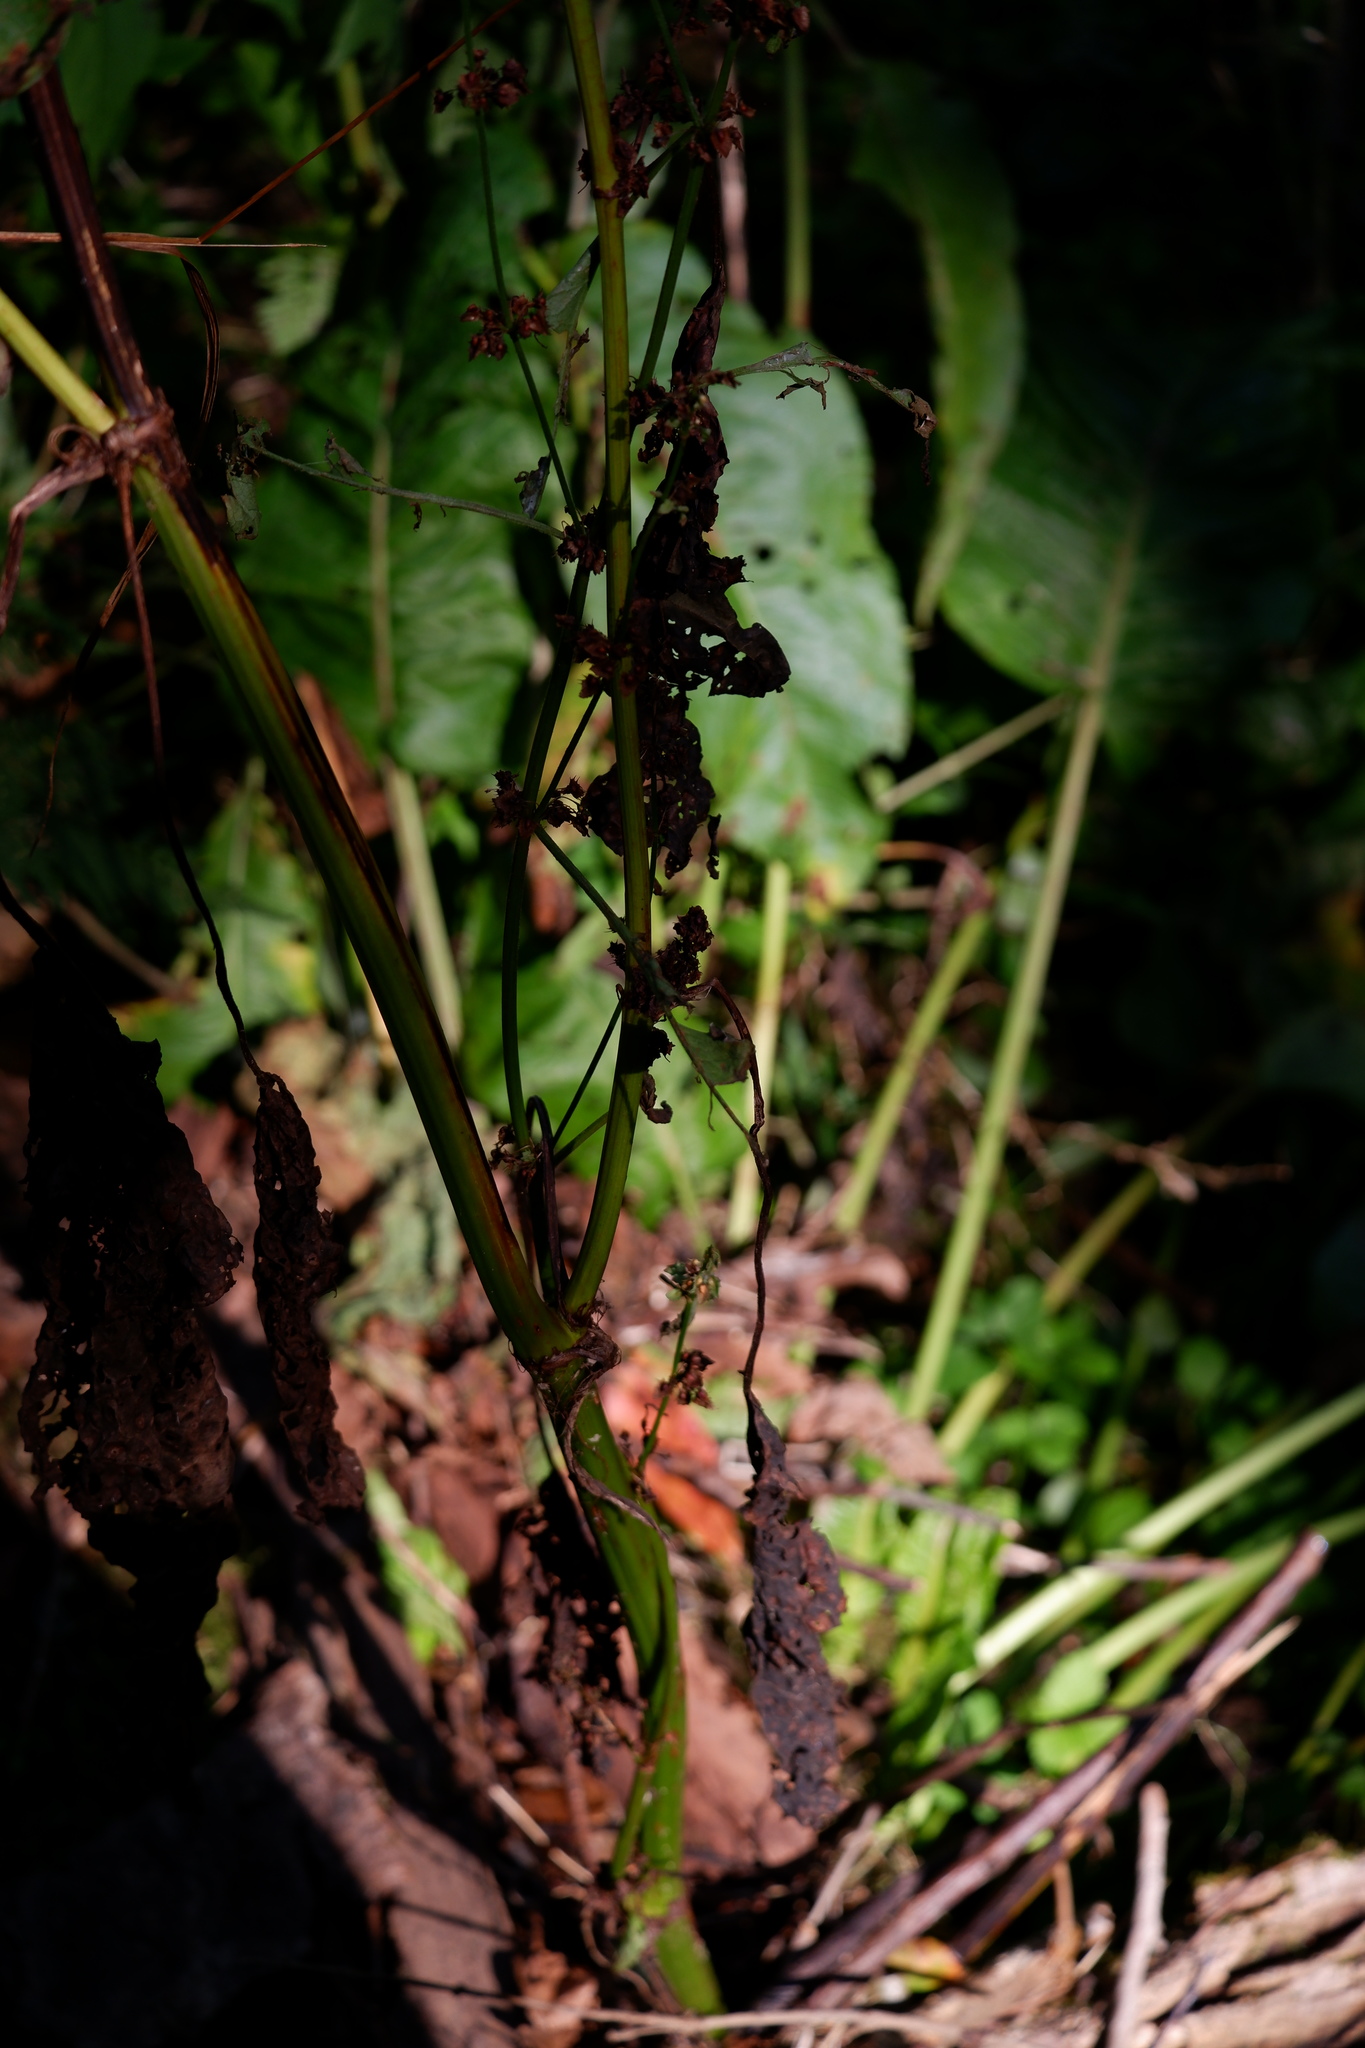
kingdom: Plantae
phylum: Tracheophyta
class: Magnoliopsida
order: Caryophyllales
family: Polygonaceae
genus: Rumex
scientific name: Rumex obtusifolius
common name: Bitter dock
